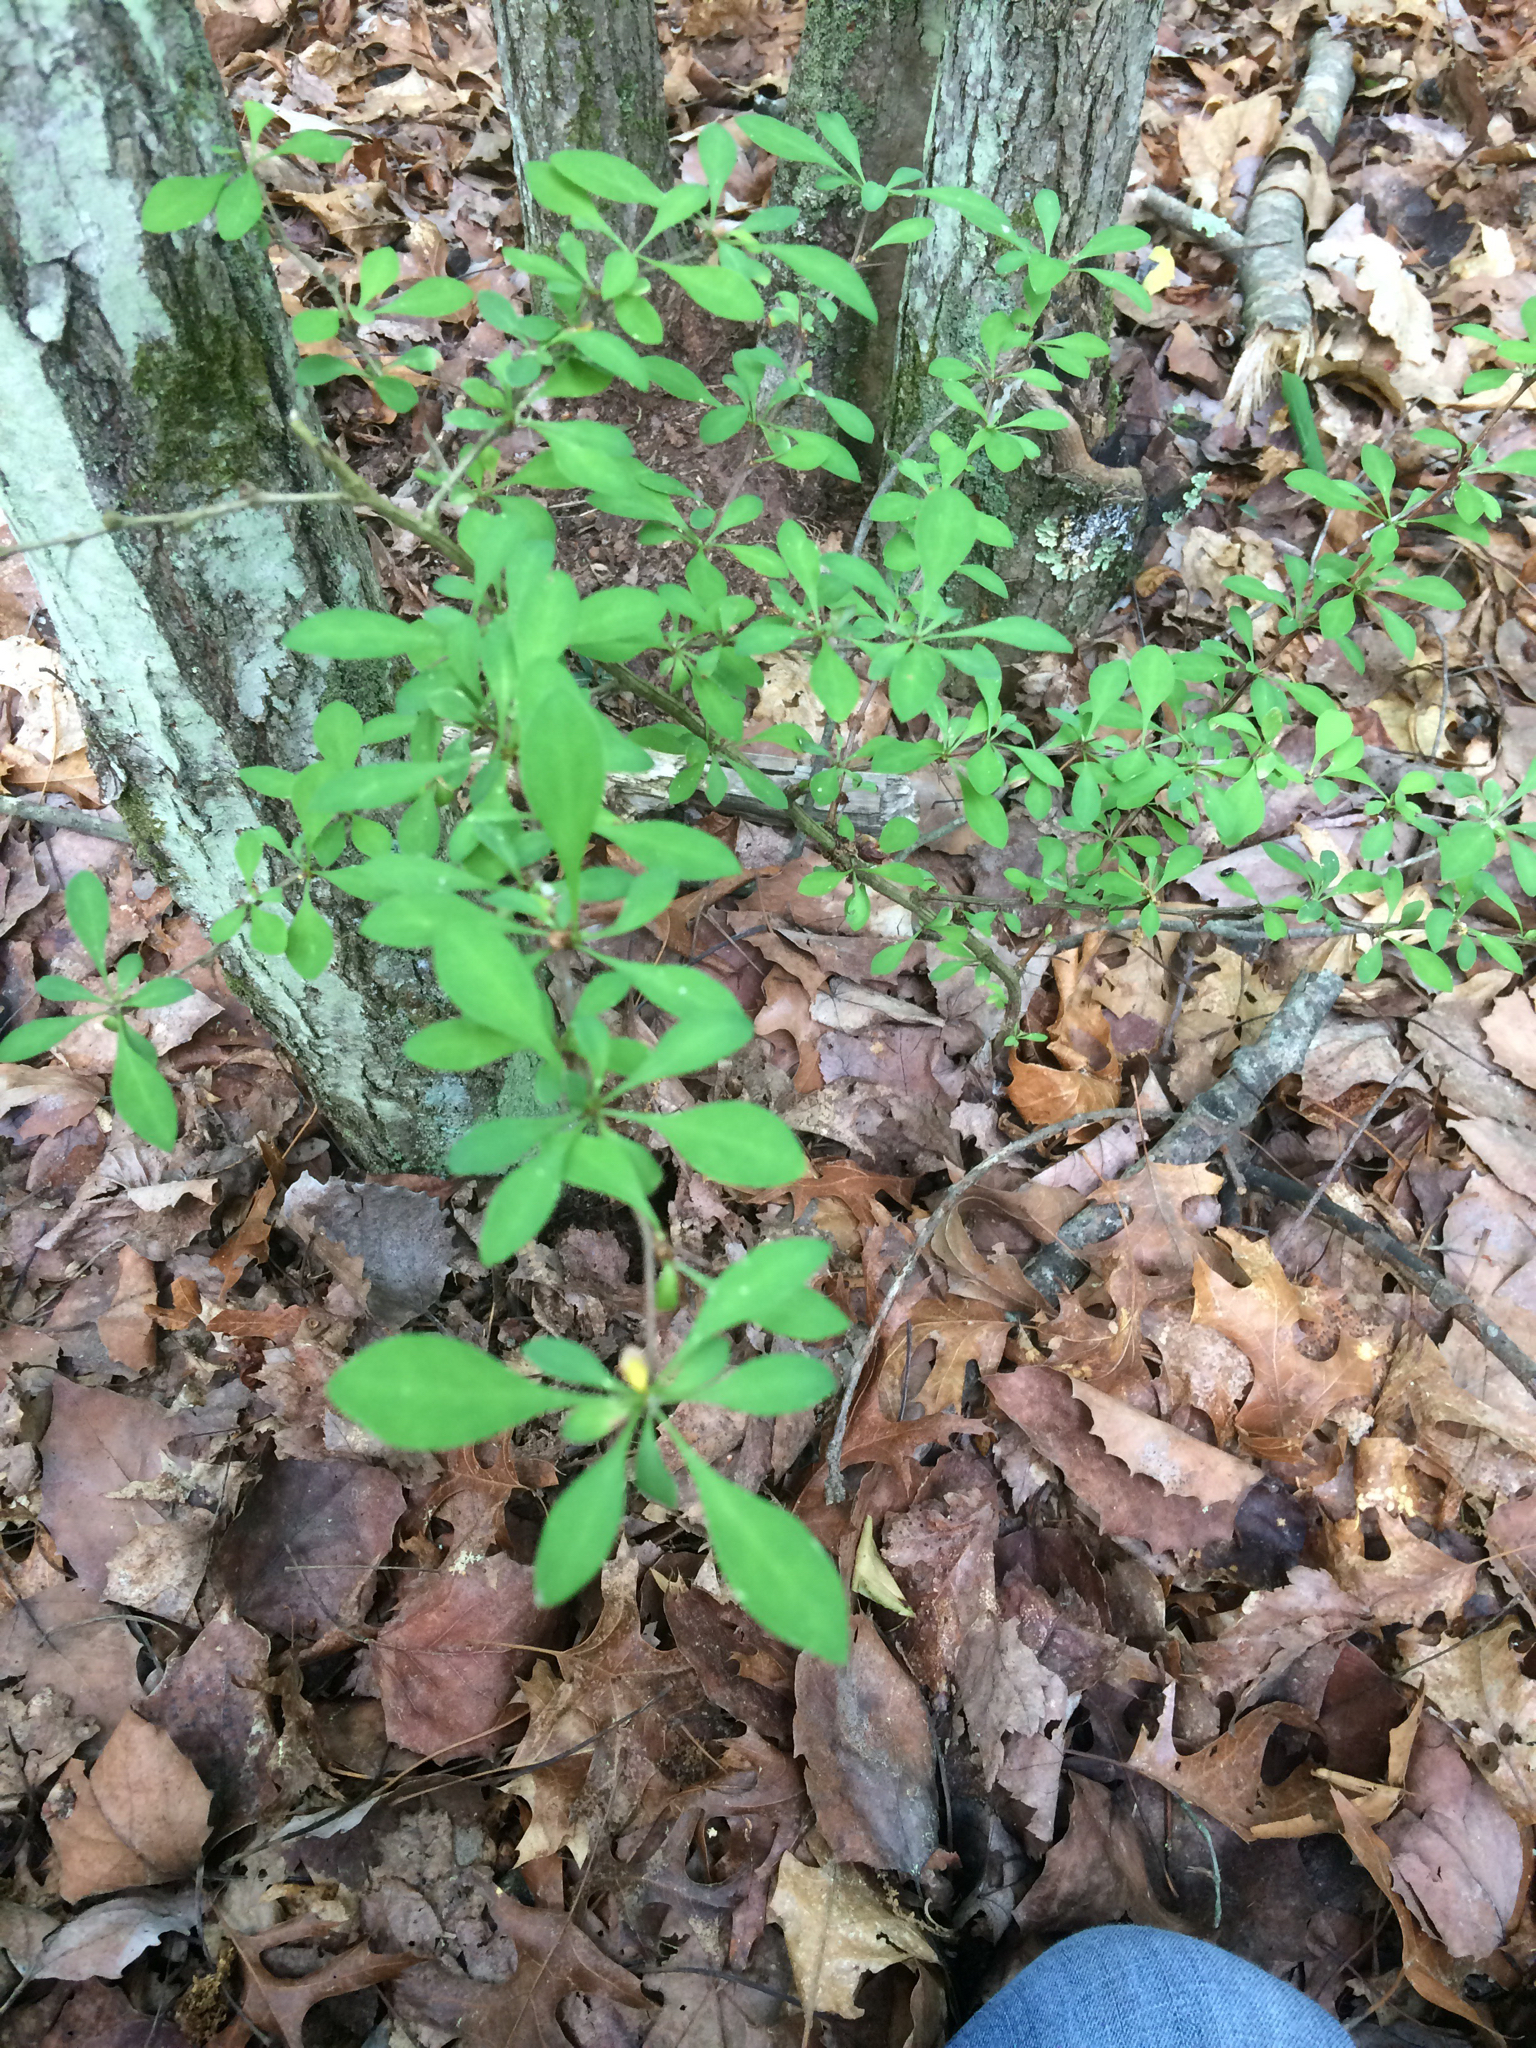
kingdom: Plantae
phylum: Tracheophyta
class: Magnoliopsida
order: Ranunculales
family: Berberidaceae
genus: Berberis
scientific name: Berberis thunbergii
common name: Japanese barberry
